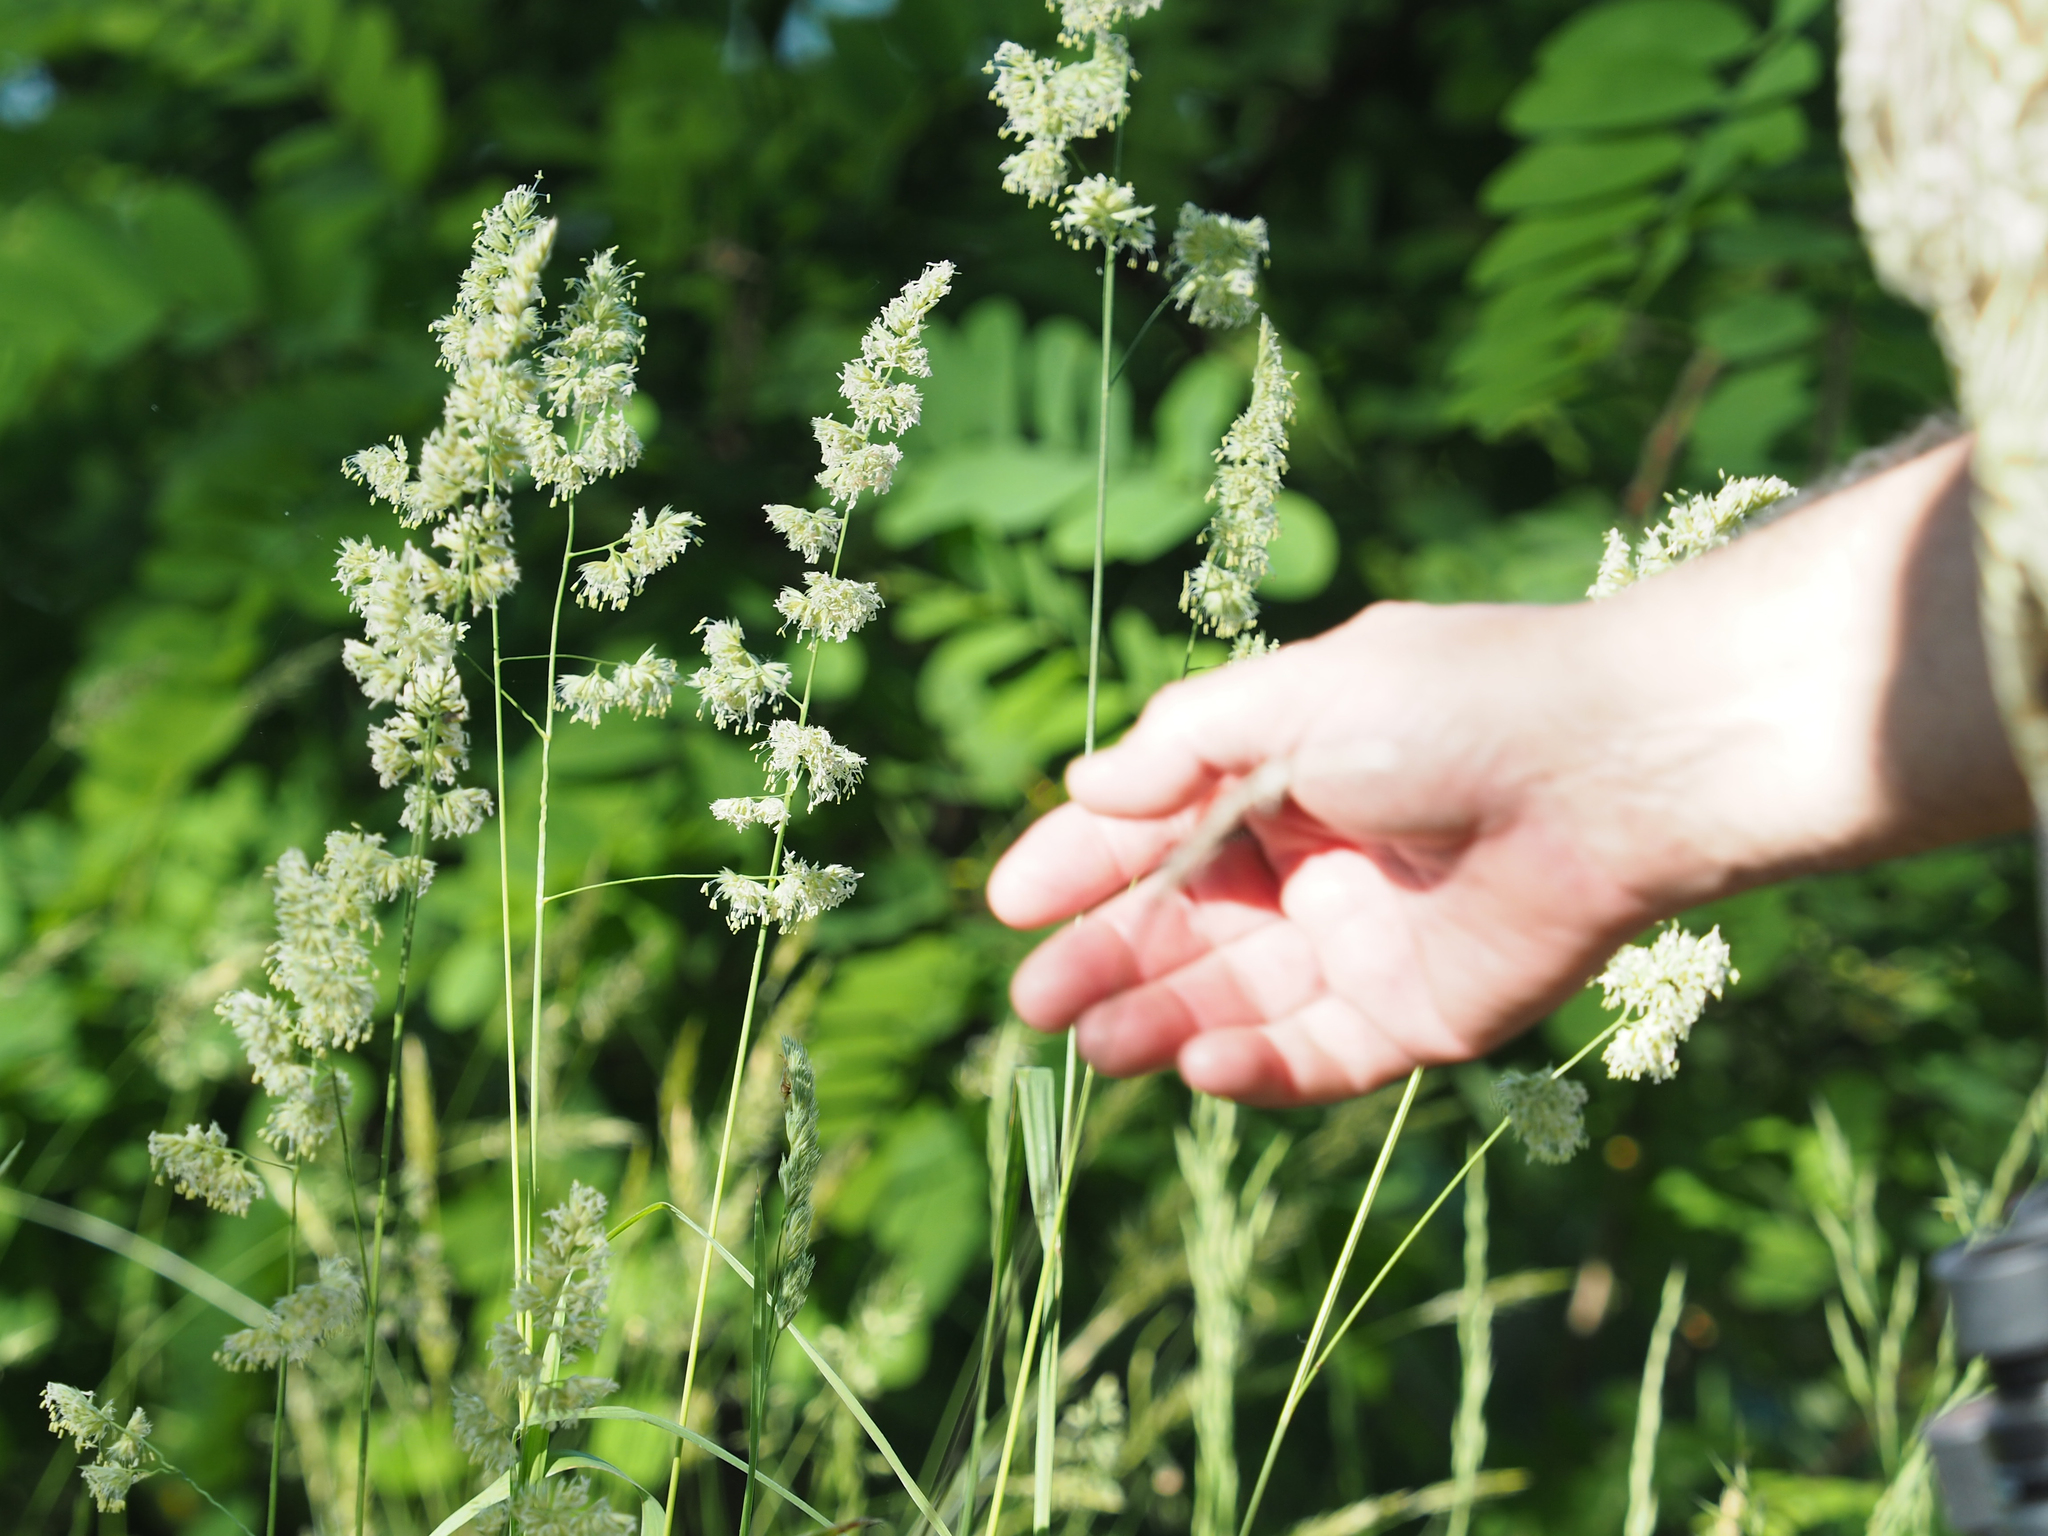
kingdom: Plantae
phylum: Tracheophyta
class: Liliopsida
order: Poales
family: Poaceae
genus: Dactylis
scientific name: Dactylis glomerata
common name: Orchardgrass
